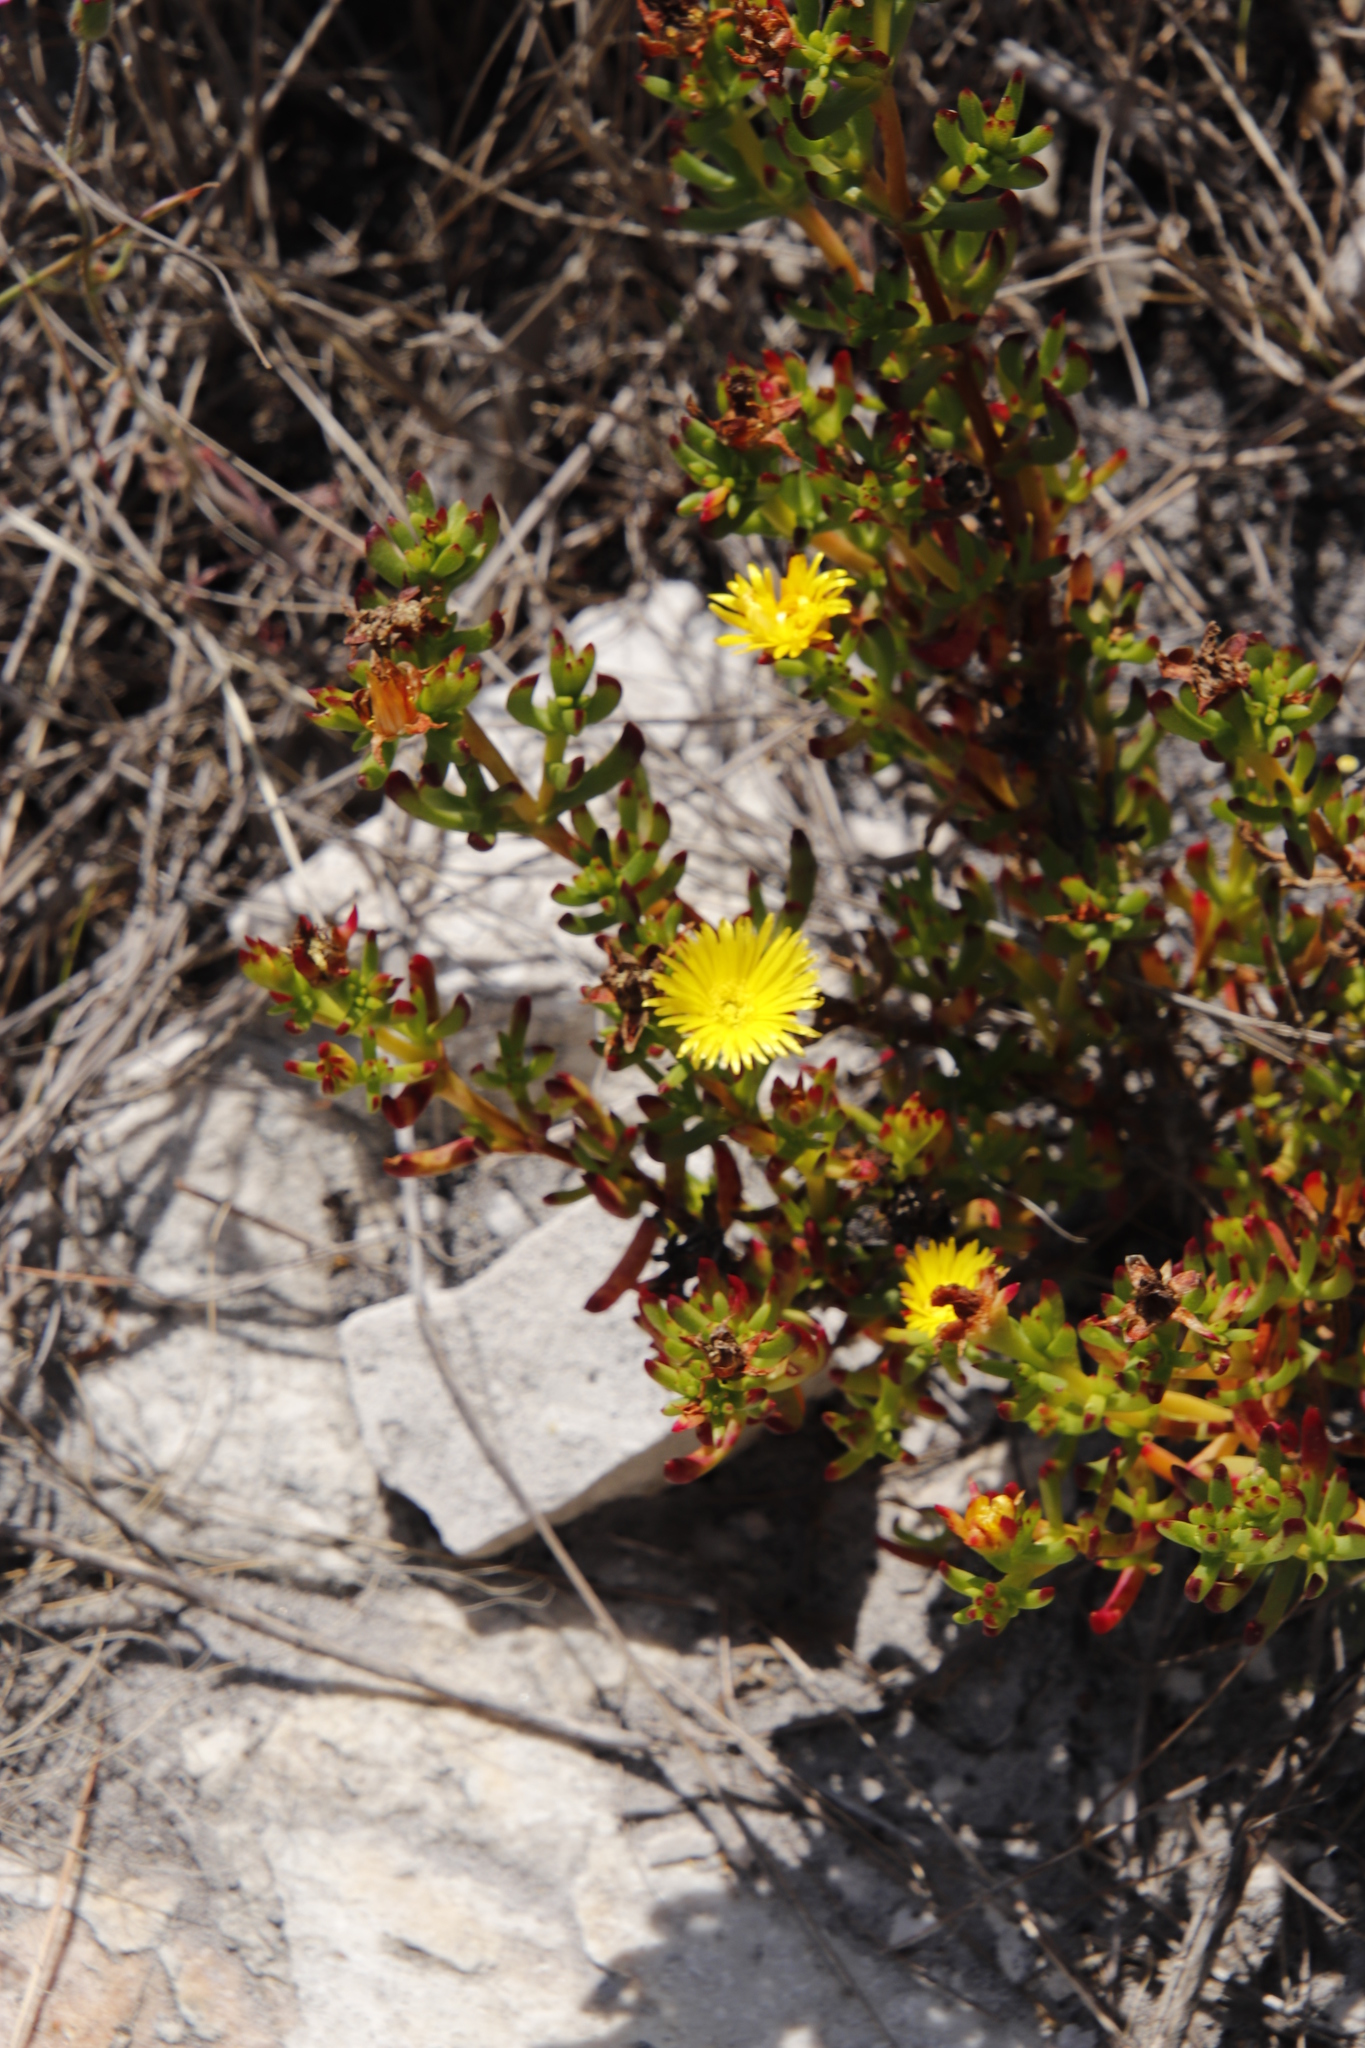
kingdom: Plantae
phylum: Tracheophyta
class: Magnoliopsida
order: Caryophyllales
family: Aizoaceae
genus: Lampranthus
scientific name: Lampranthus promontorii
